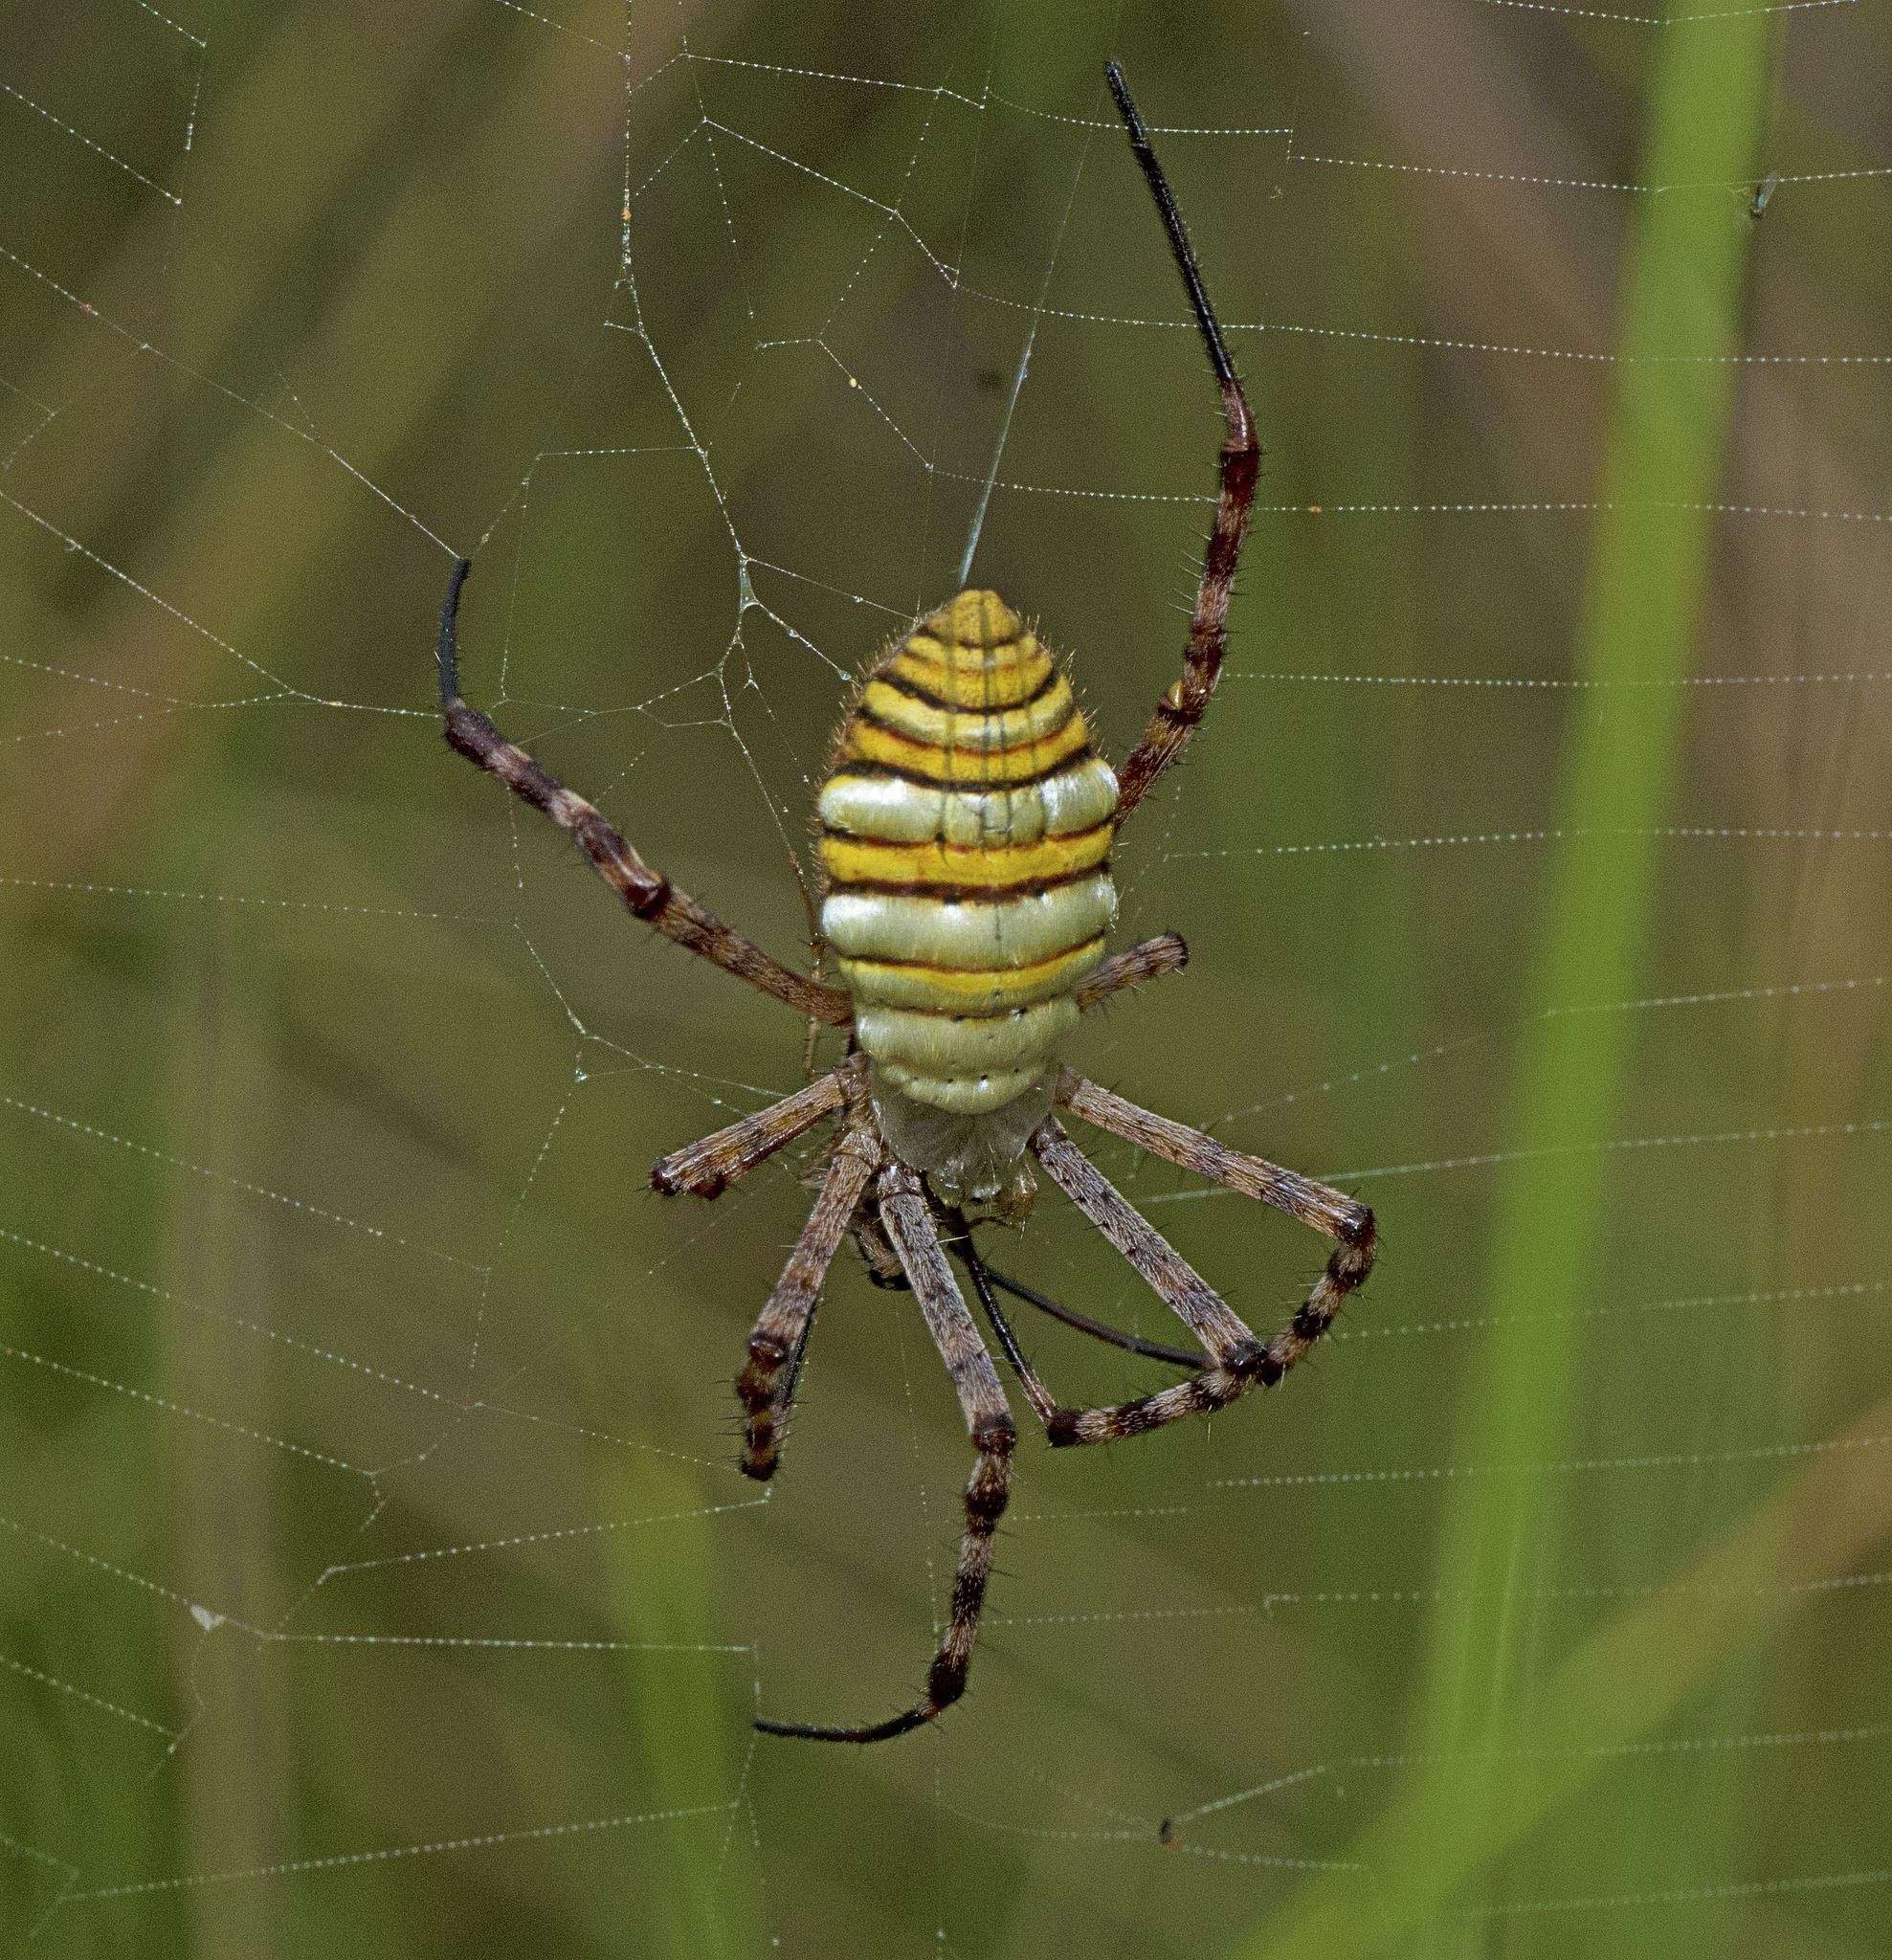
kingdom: Animalia
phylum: Arthropoda
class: Arachnida
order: Araneae
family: Araneidae
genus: Argiope
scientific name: Argiope trifasciata
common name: Banded garden spider
